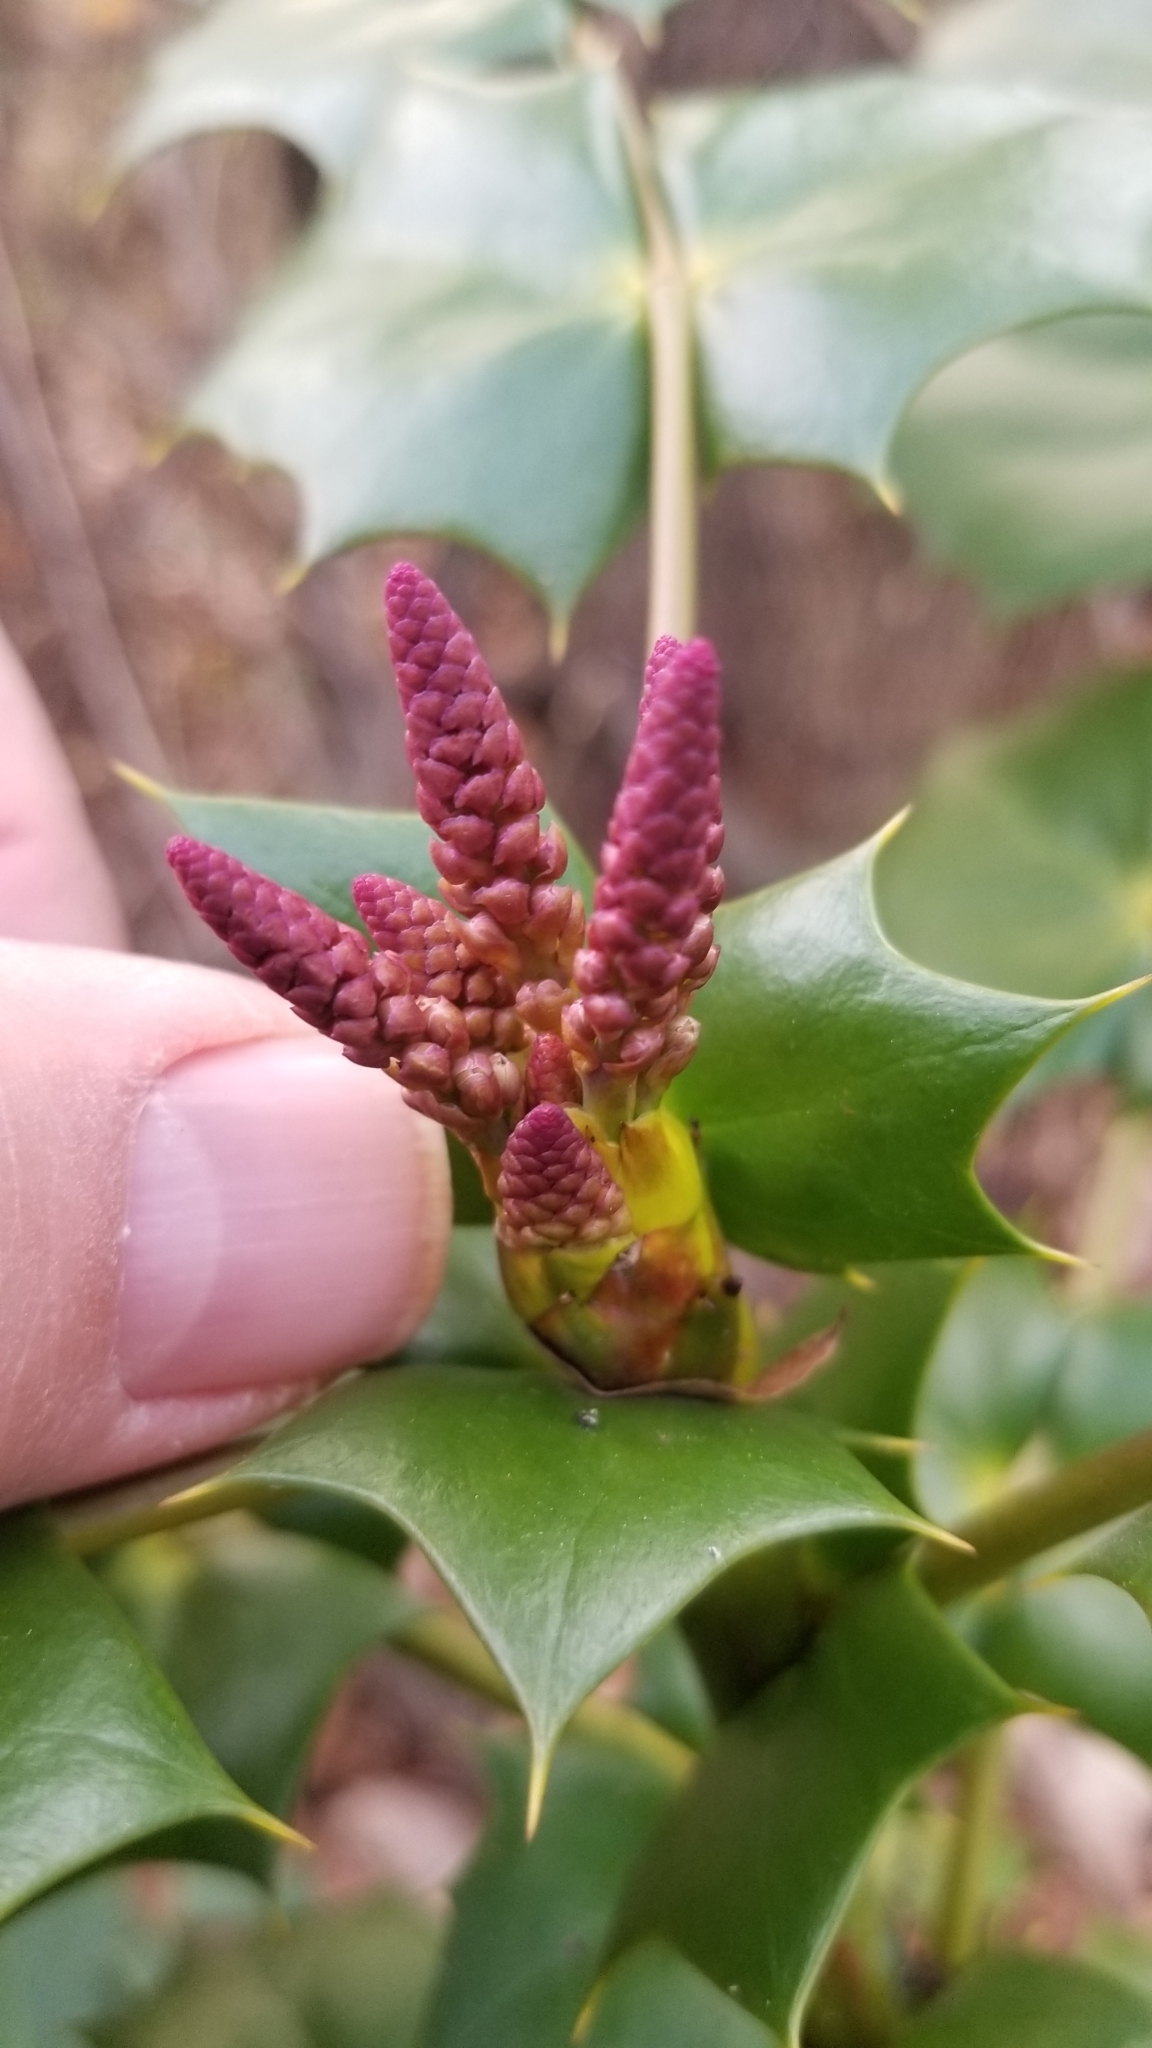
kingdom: Plantae
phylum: Tracheophyta
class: Magnoliopsida
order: Ranunculales
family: Berberidaceae
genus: Mahonia
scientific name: Mahonia bealei
